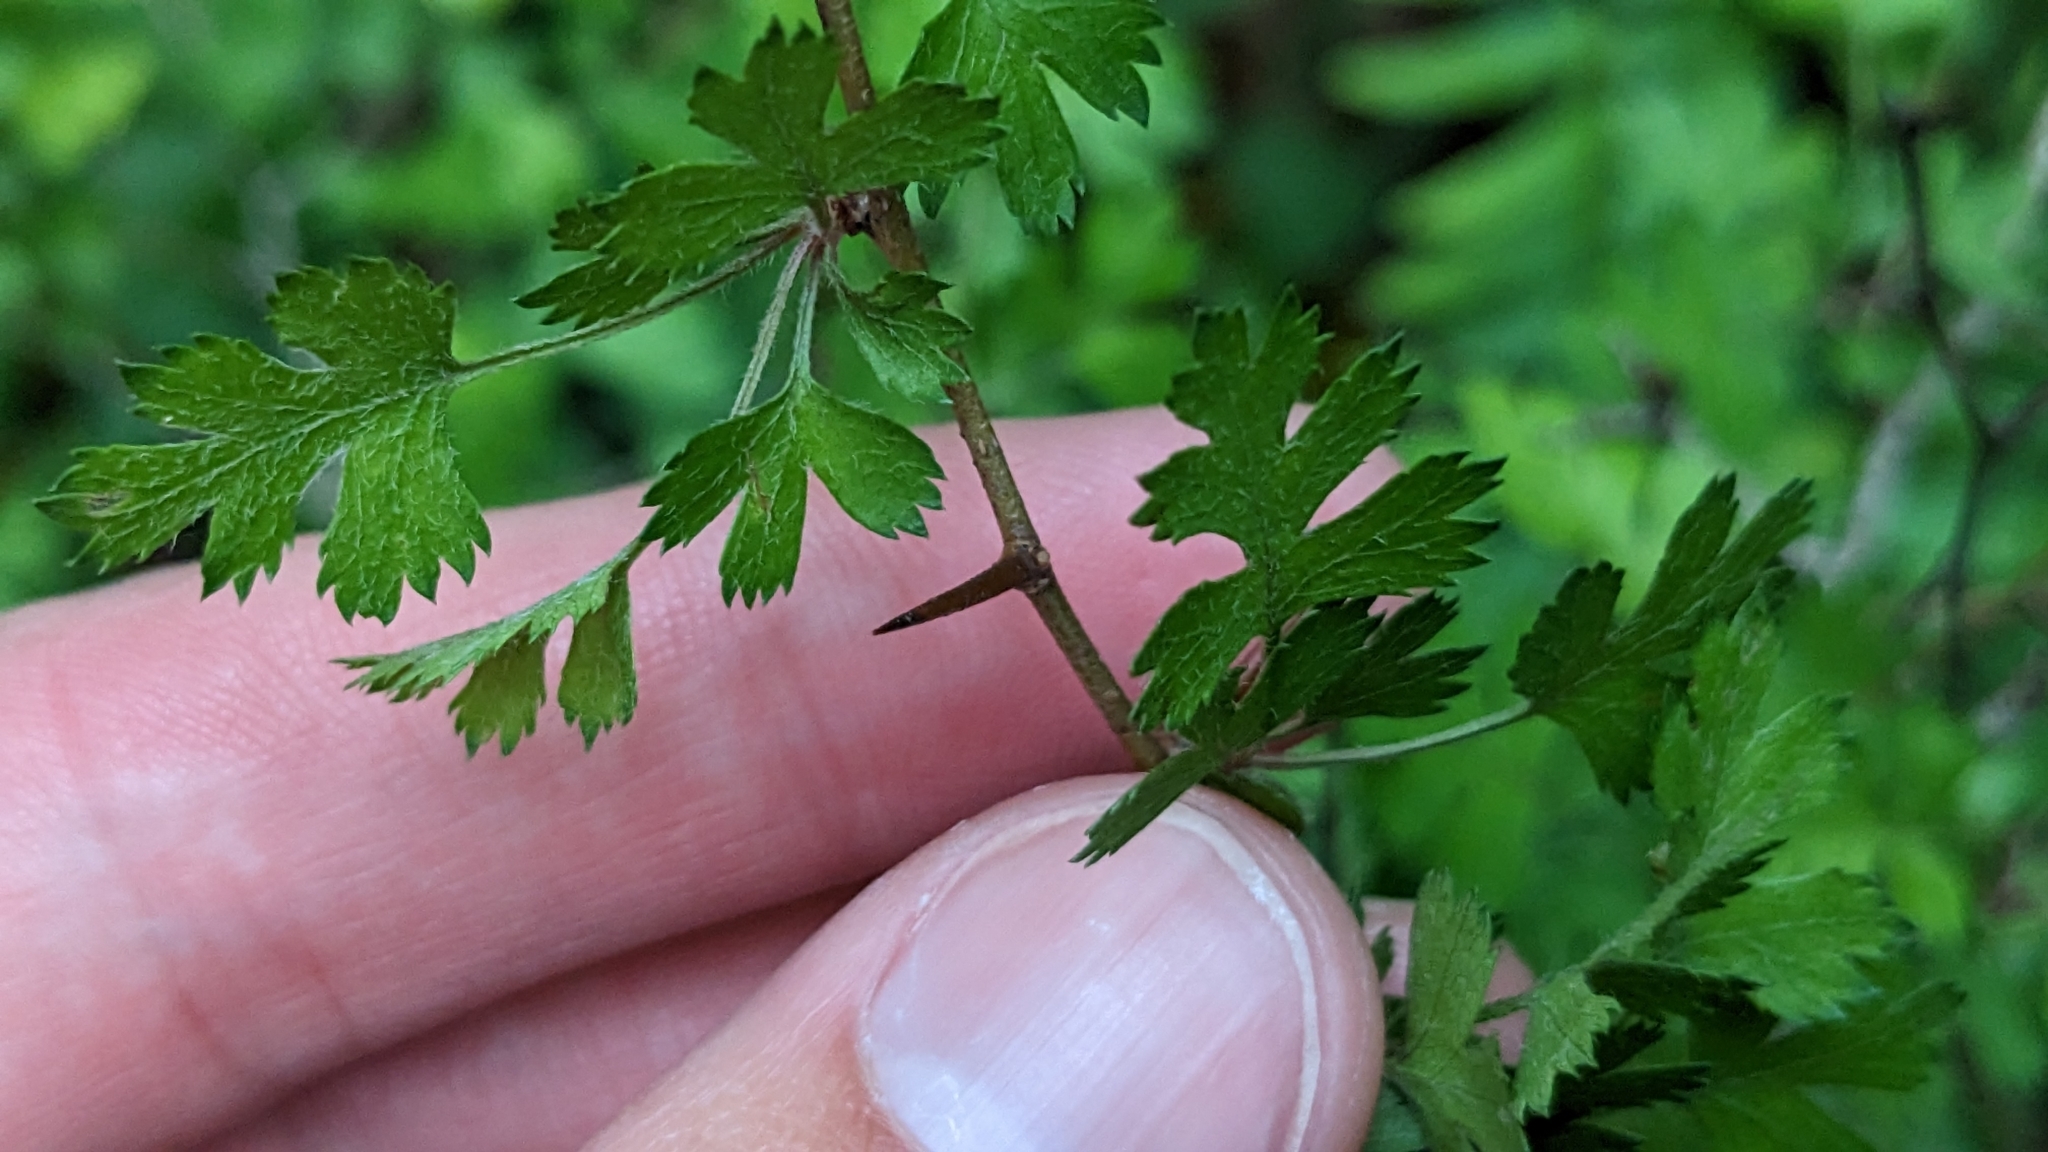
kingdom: Plantae
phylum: Tracheophyta
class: Magnoliopsida
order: Rosales
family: Rosaceae
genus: Crataegus
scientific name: Crataegus marshallii
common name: Parsley-hawthorn
